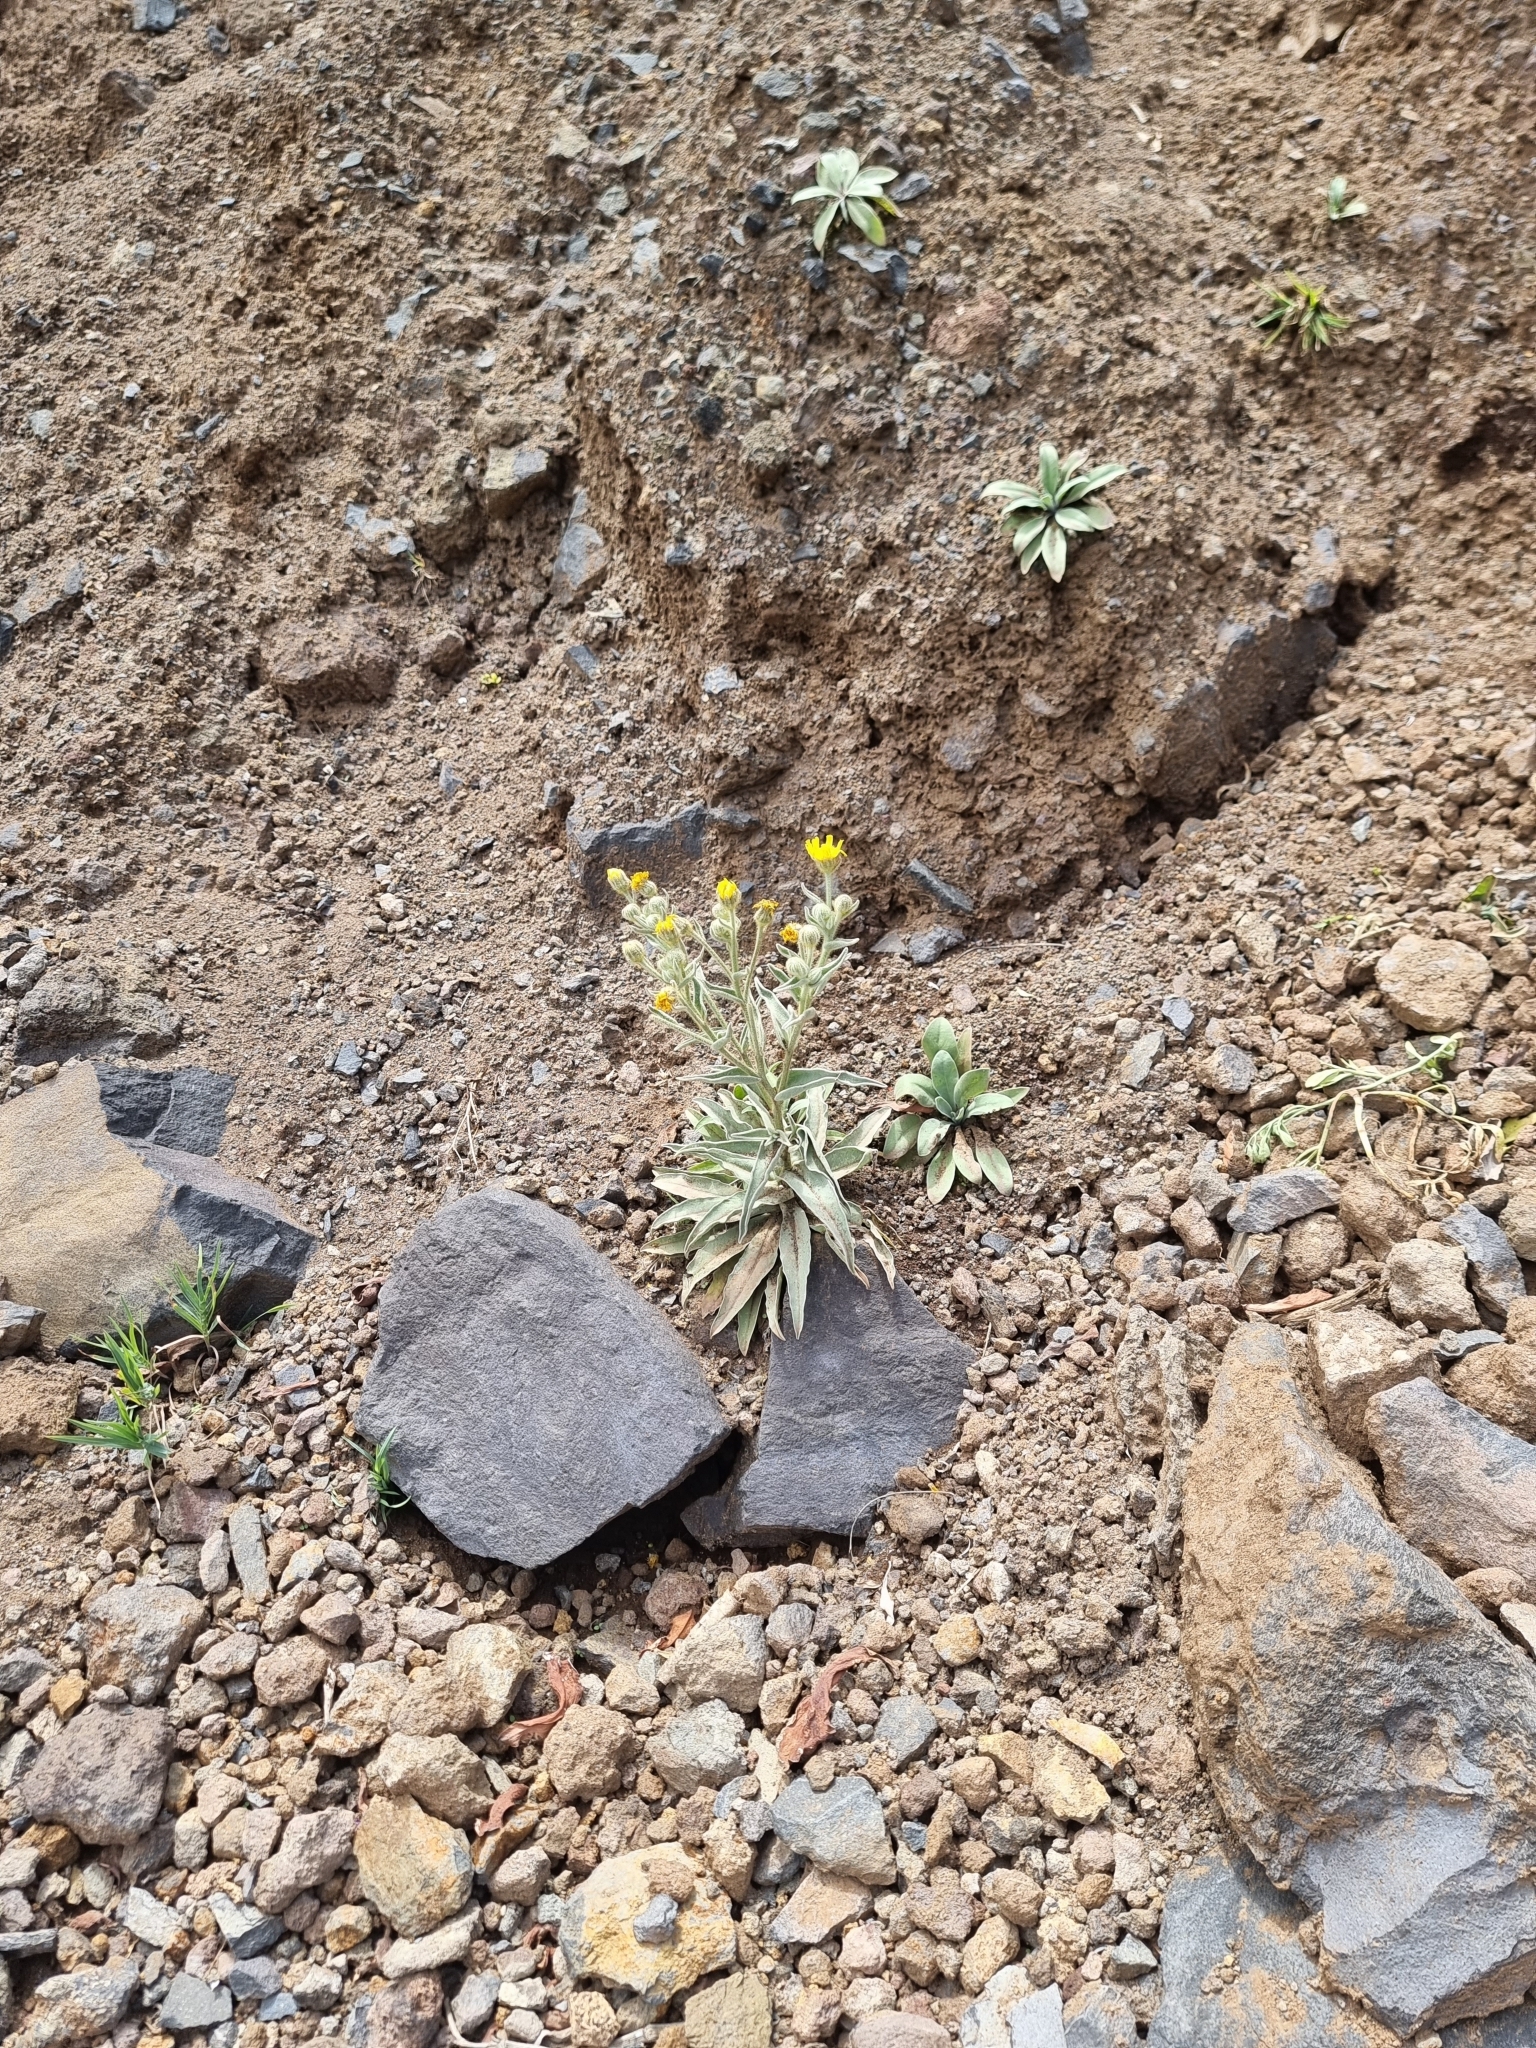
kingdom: Plantae
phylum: Tracheophyta
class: Magnoliopsida
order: Asterales
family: Asteraceae
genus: Andryala
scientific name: Andryala glandulosa
